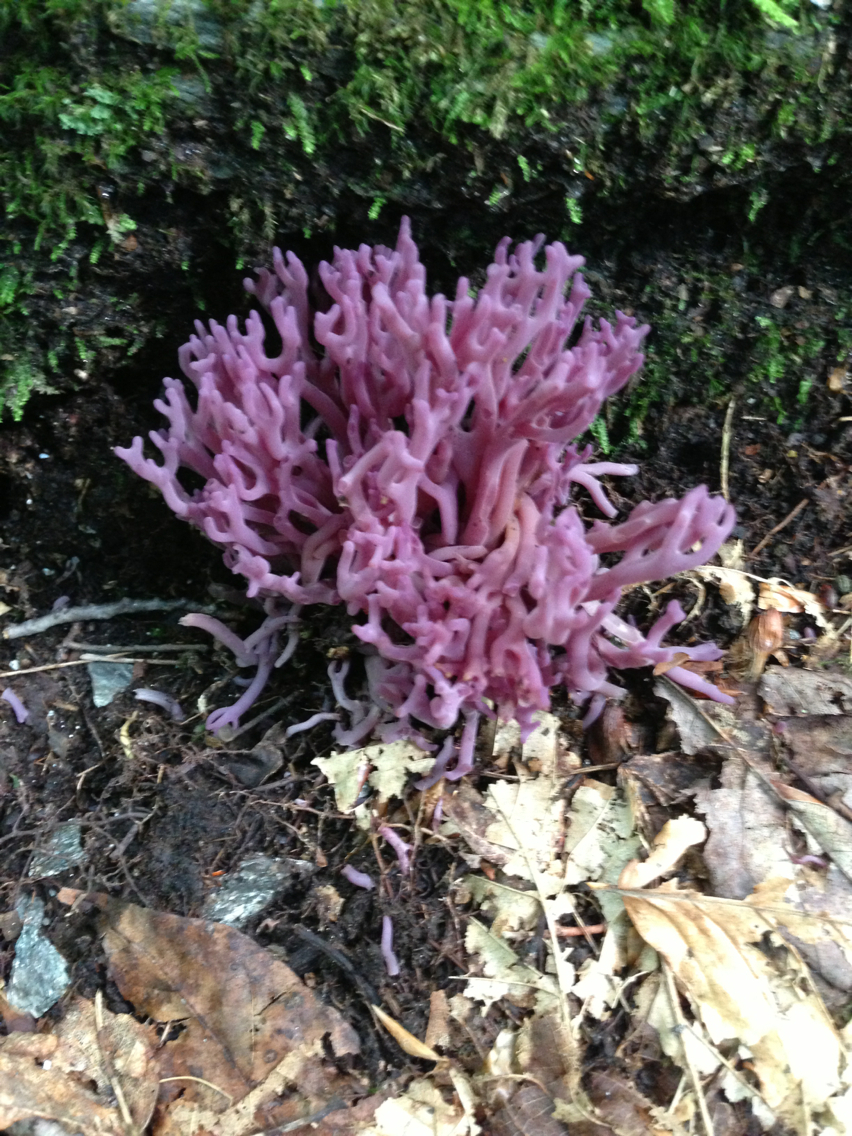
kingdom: Fungi
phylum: Basidiomycota
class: Agaricomycetes
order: Agaricales
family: Clavariaceae
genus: Clavaria
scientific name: Clavaria zollingeri
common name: Violet coral
